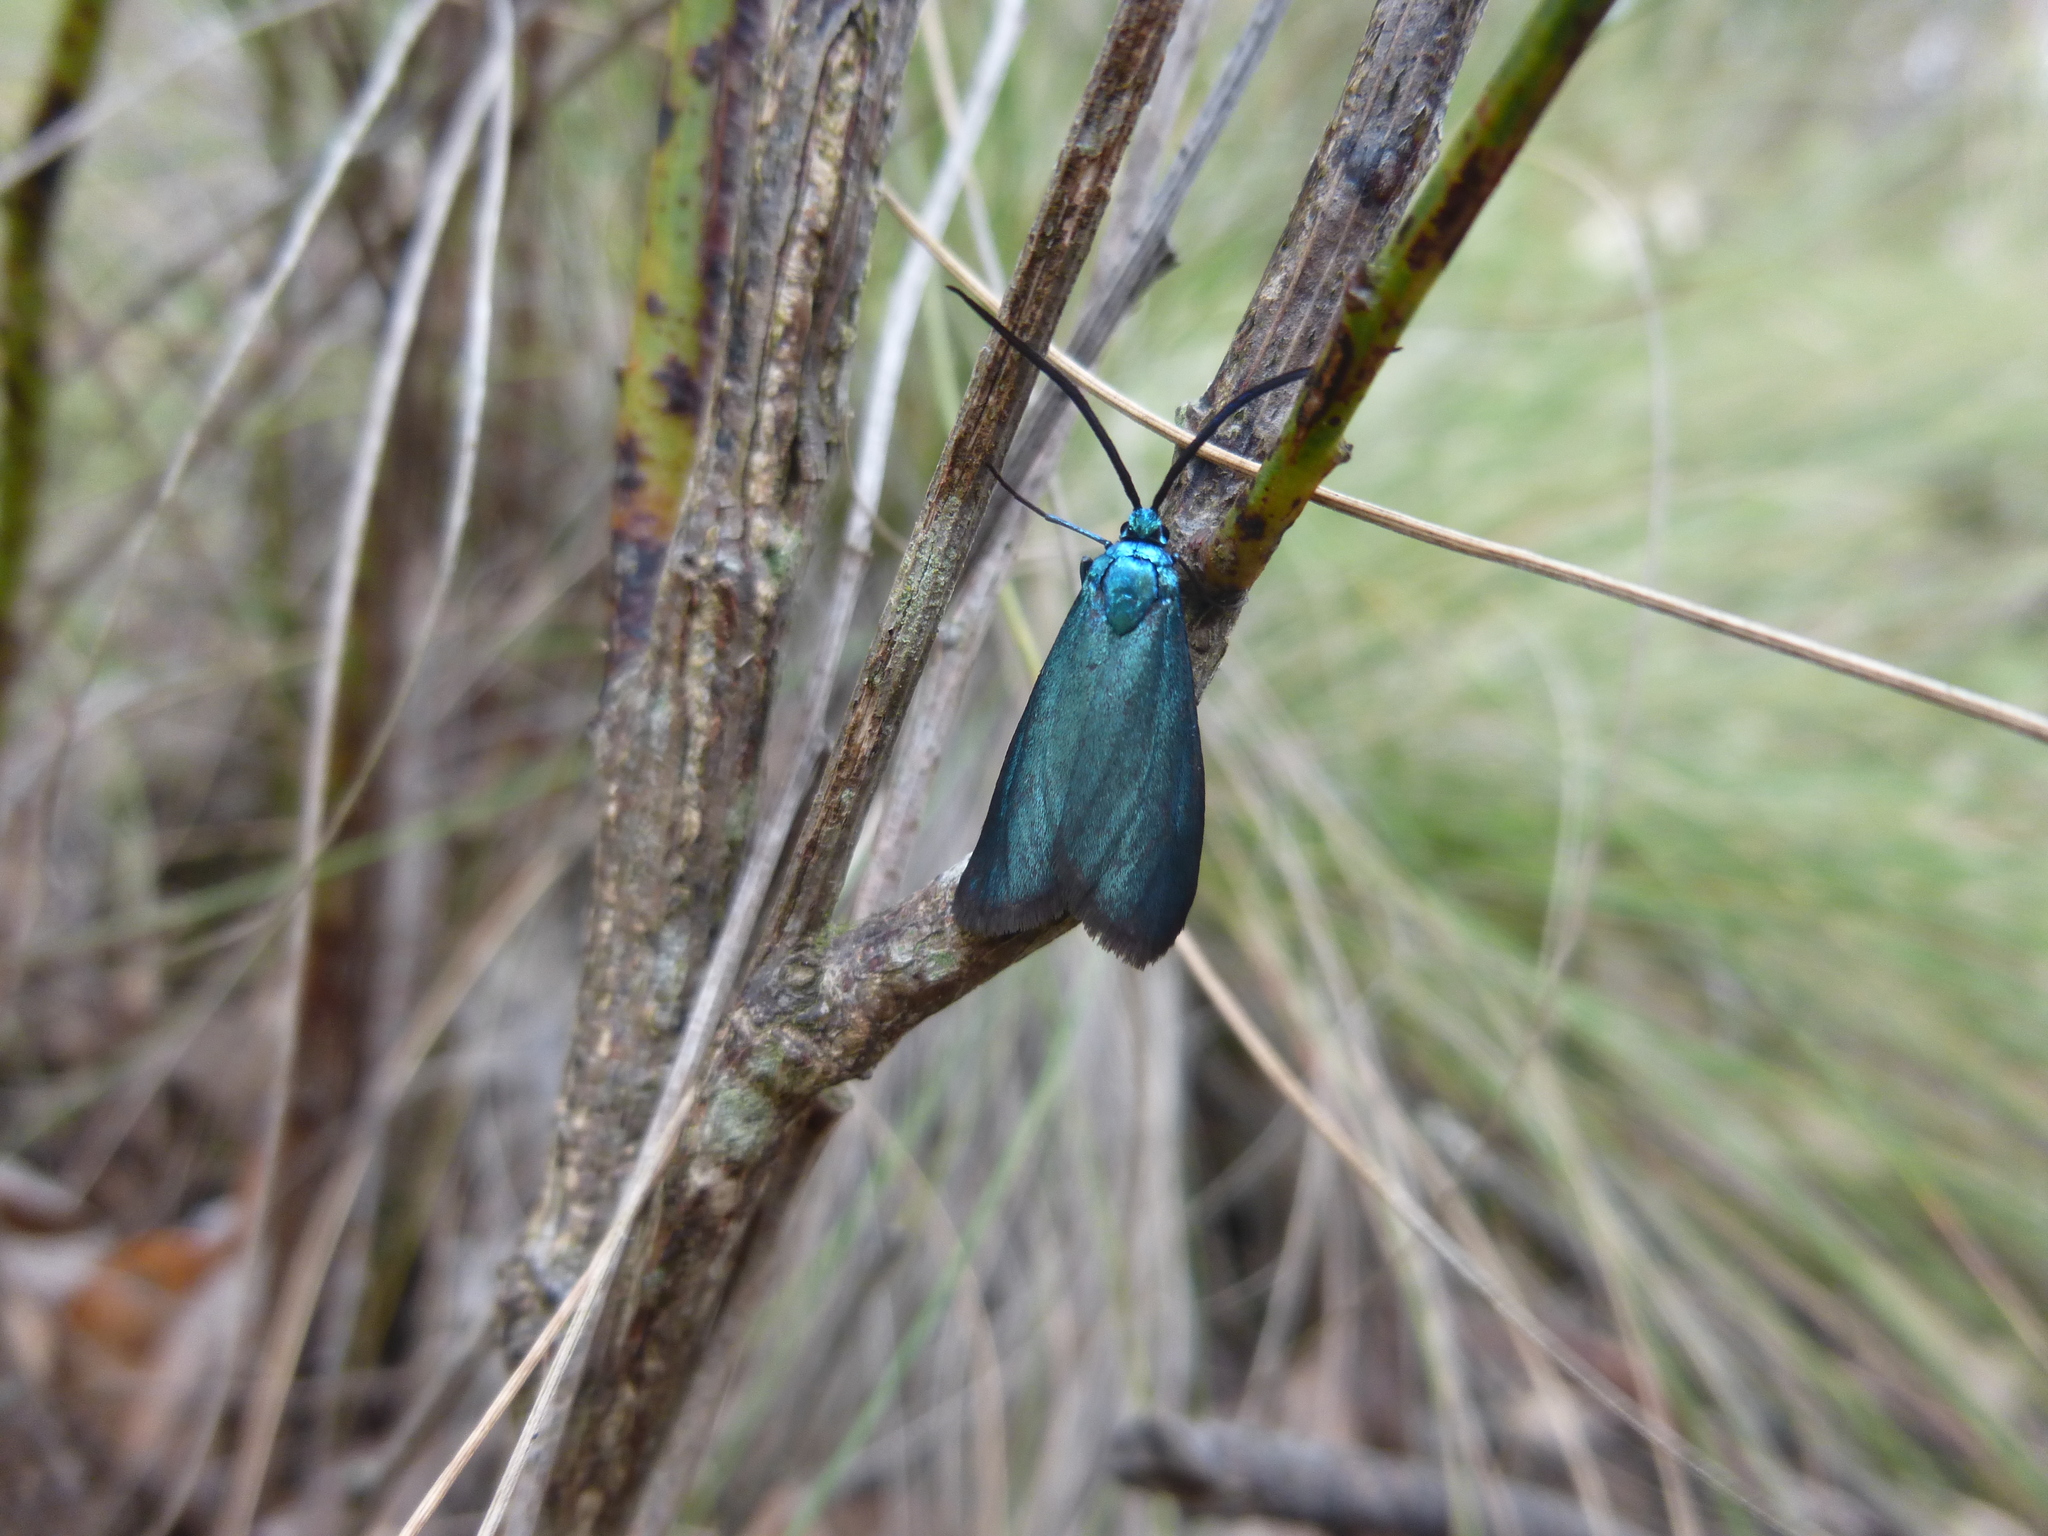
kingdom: Animalia
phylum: Arthropoda
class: Insecta
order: Lepidoptera
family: Zygaenidae
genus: Pollanisus
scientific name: Pollanisus viridipulverulenta
